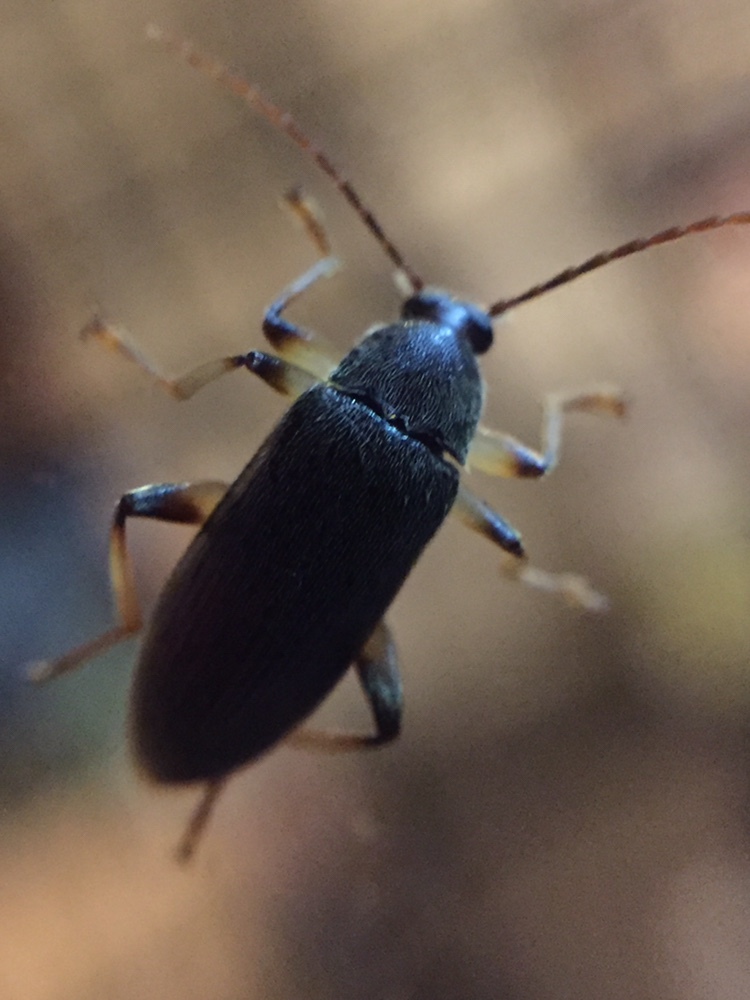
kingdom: Animalia
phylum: Arthropoda
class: Insecta
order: Coleoptera
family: Tenebrionidae
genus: Homotrysis
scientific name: Homotrysis
